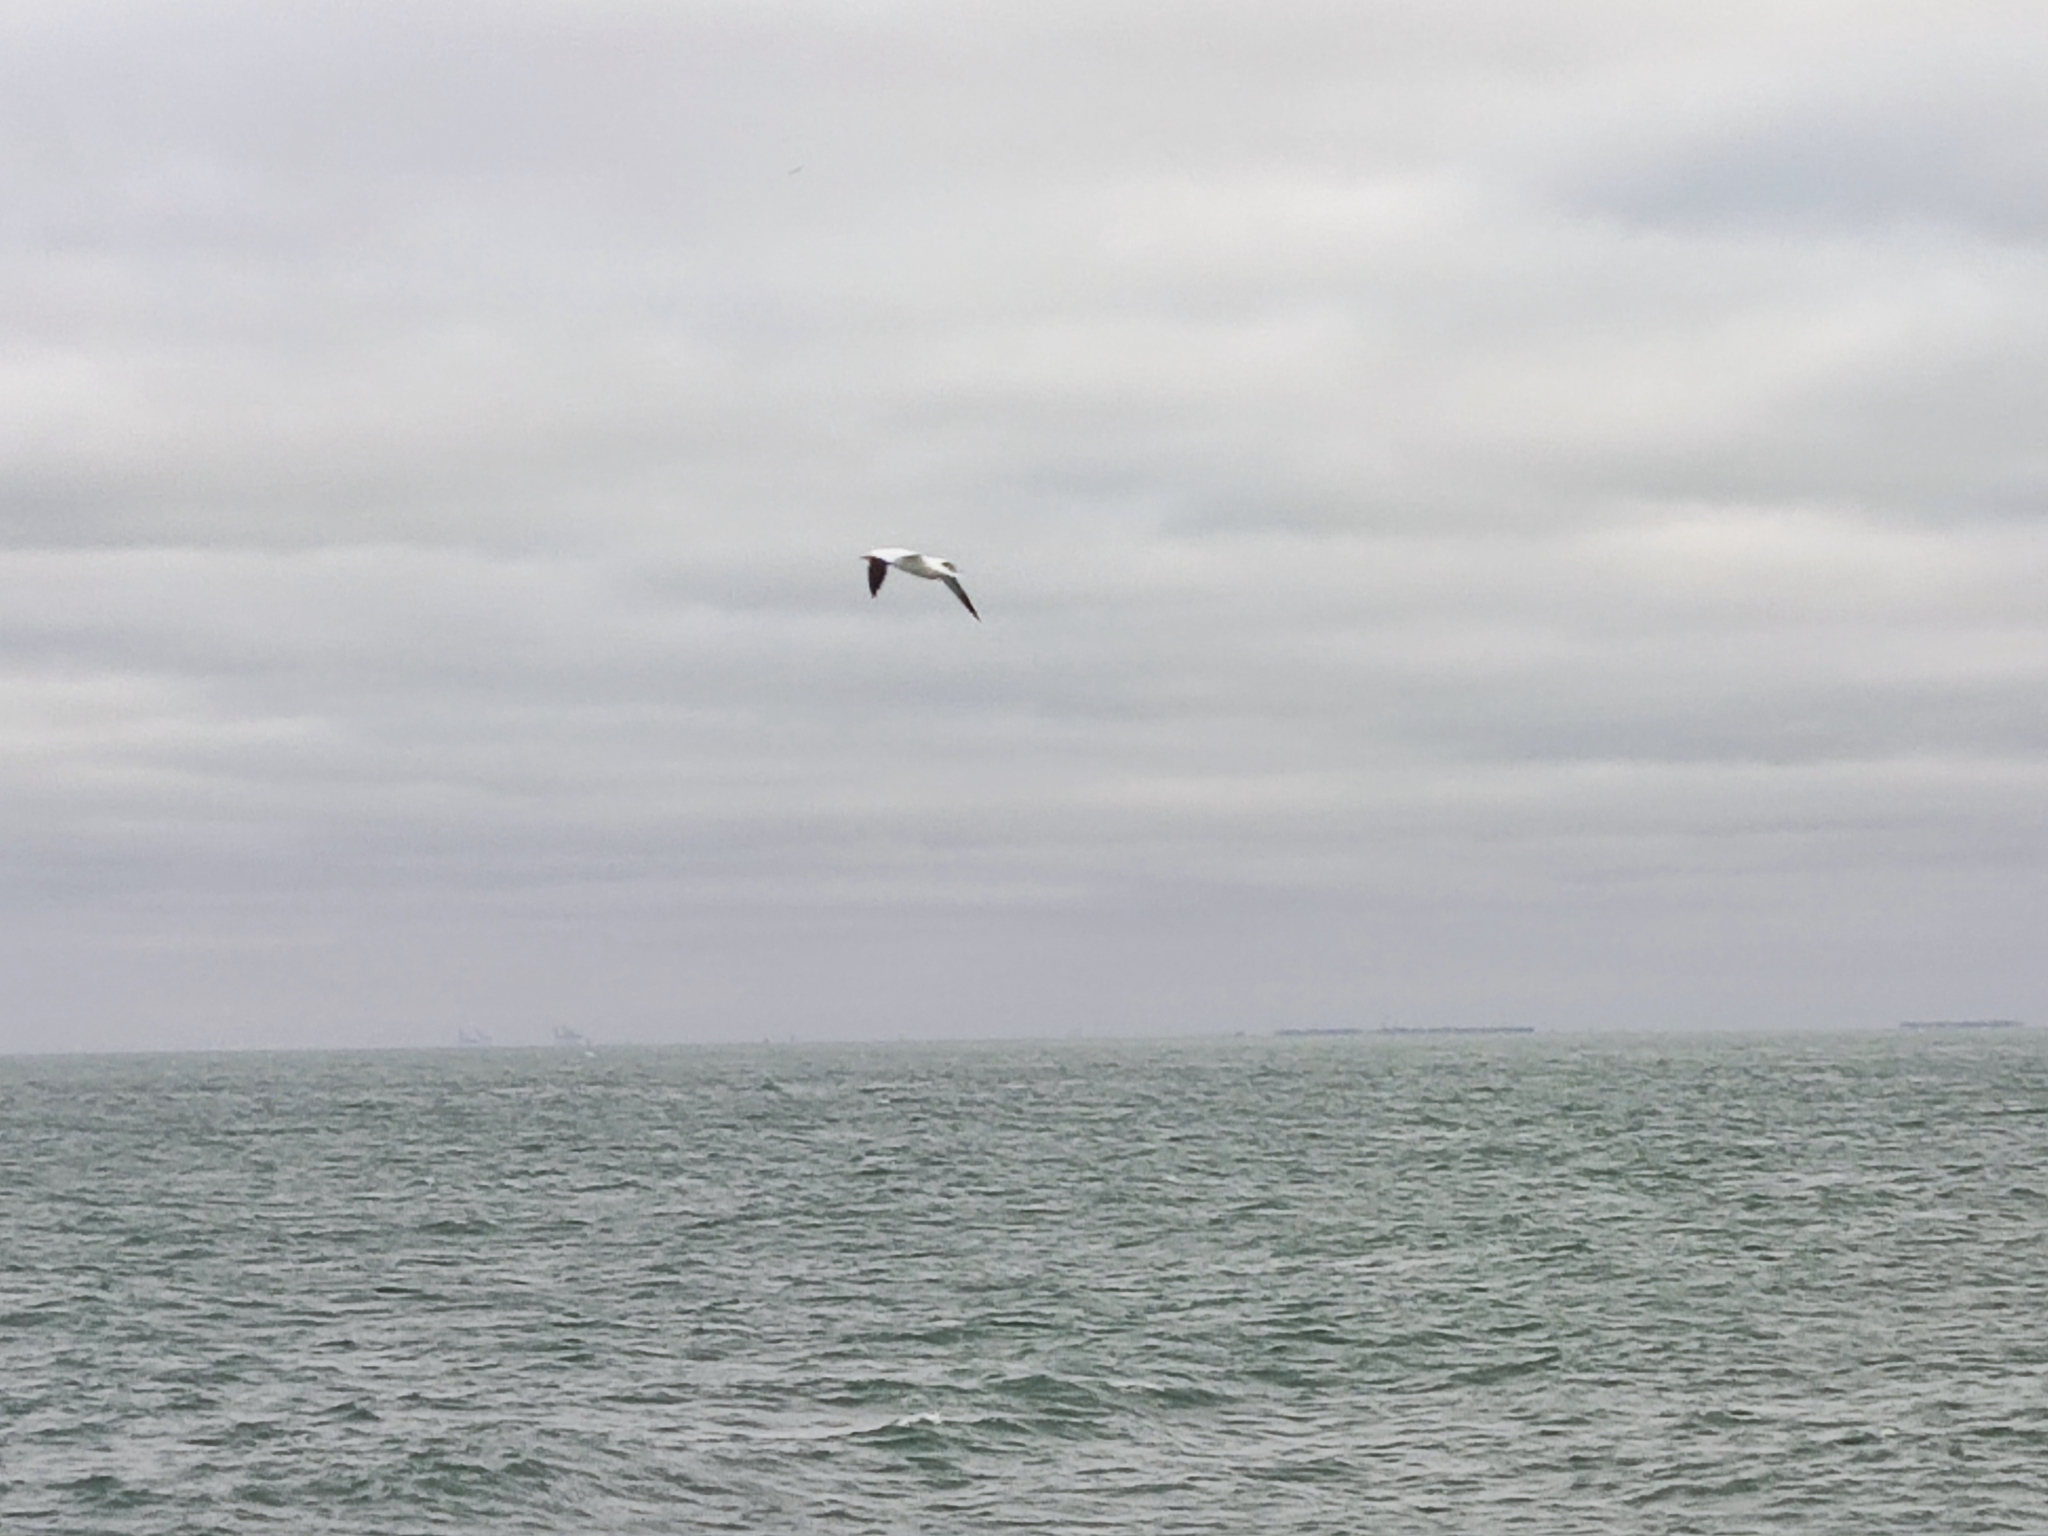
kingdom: Animalia
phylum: Chordata
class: Aves
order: Suliformes
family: Sulidae
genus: Morus
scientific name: Morus bassanus
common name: Northern gannet
